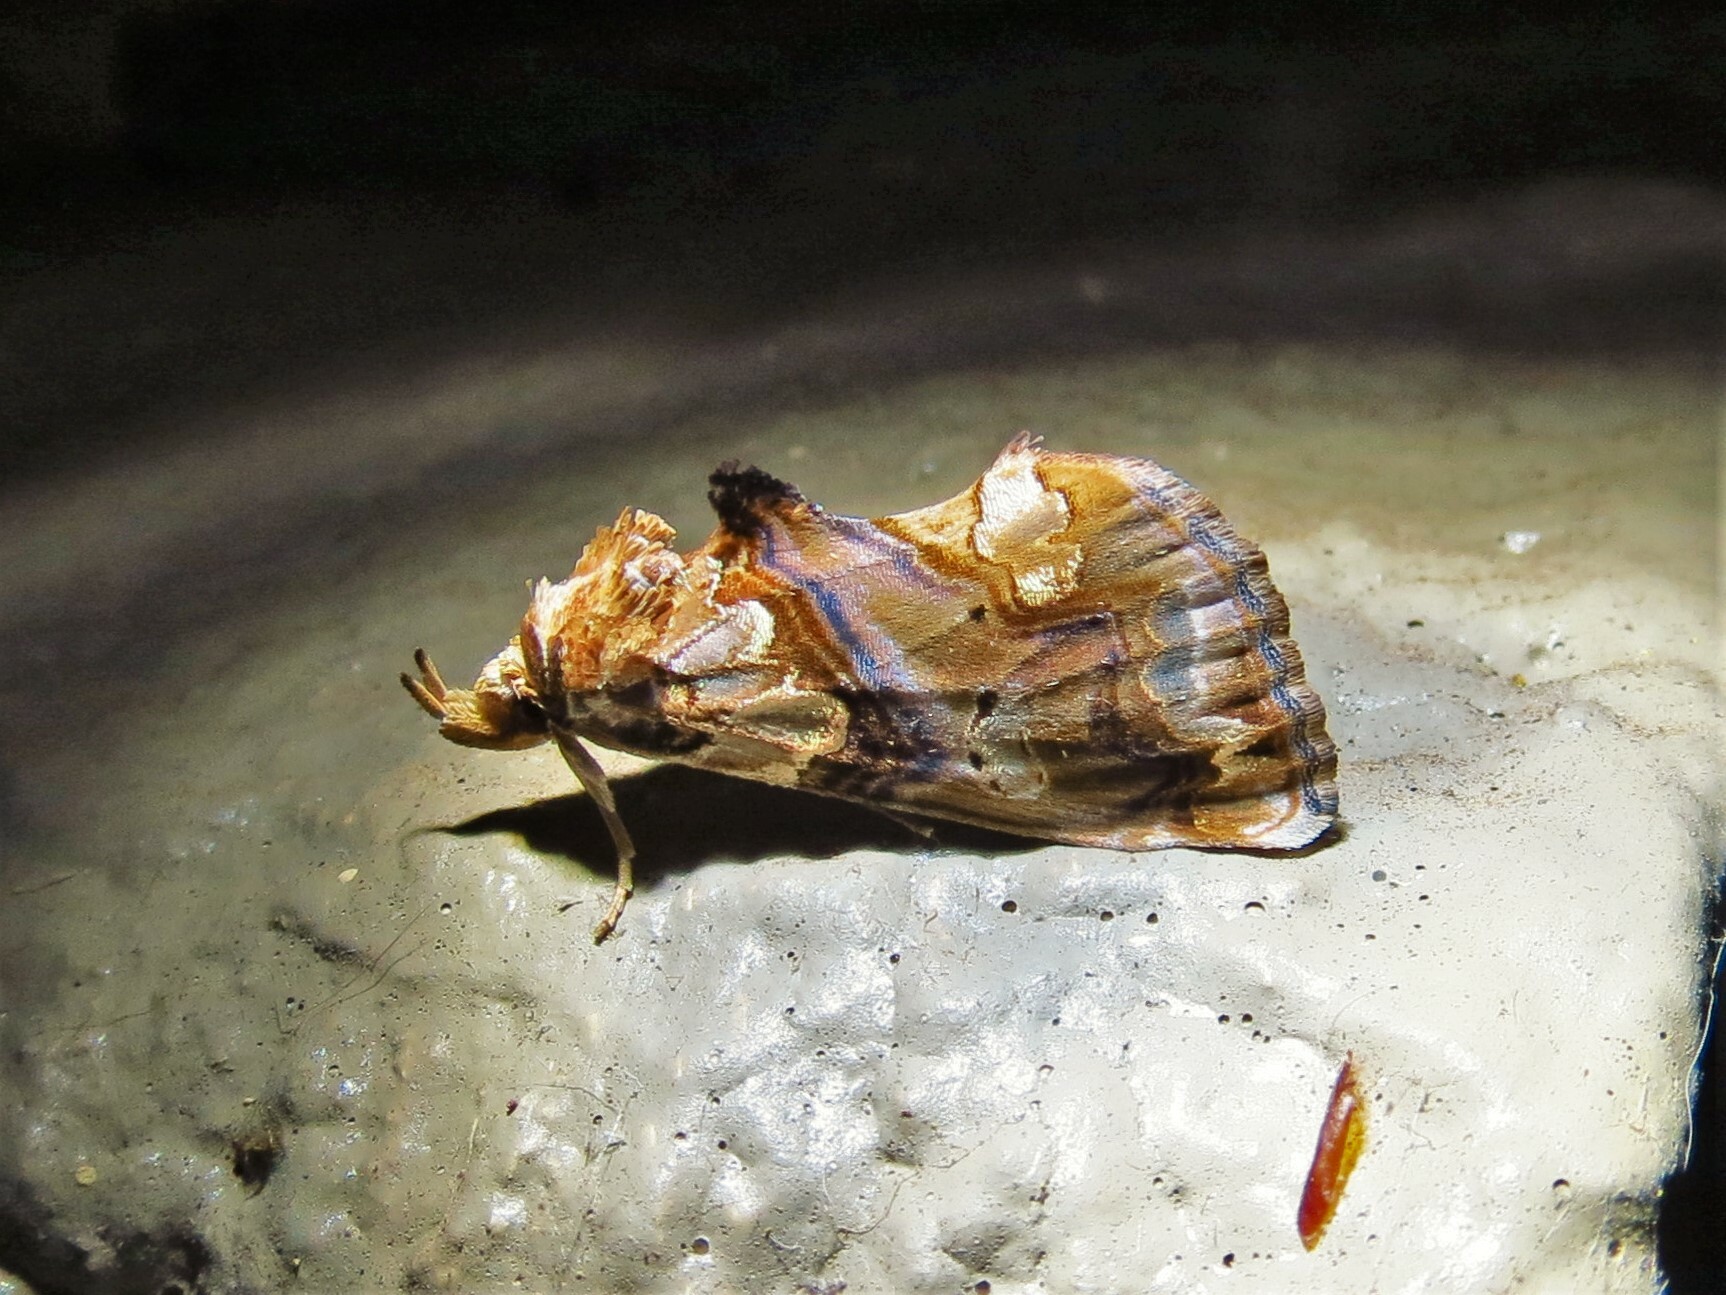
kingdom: Animalia
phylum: Arthropoda
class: Insecta
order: Lepidoptera
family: Erebidae
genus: Plusiodonta
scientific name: Plusiodonta compressipalpis
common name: Moonseed moth
